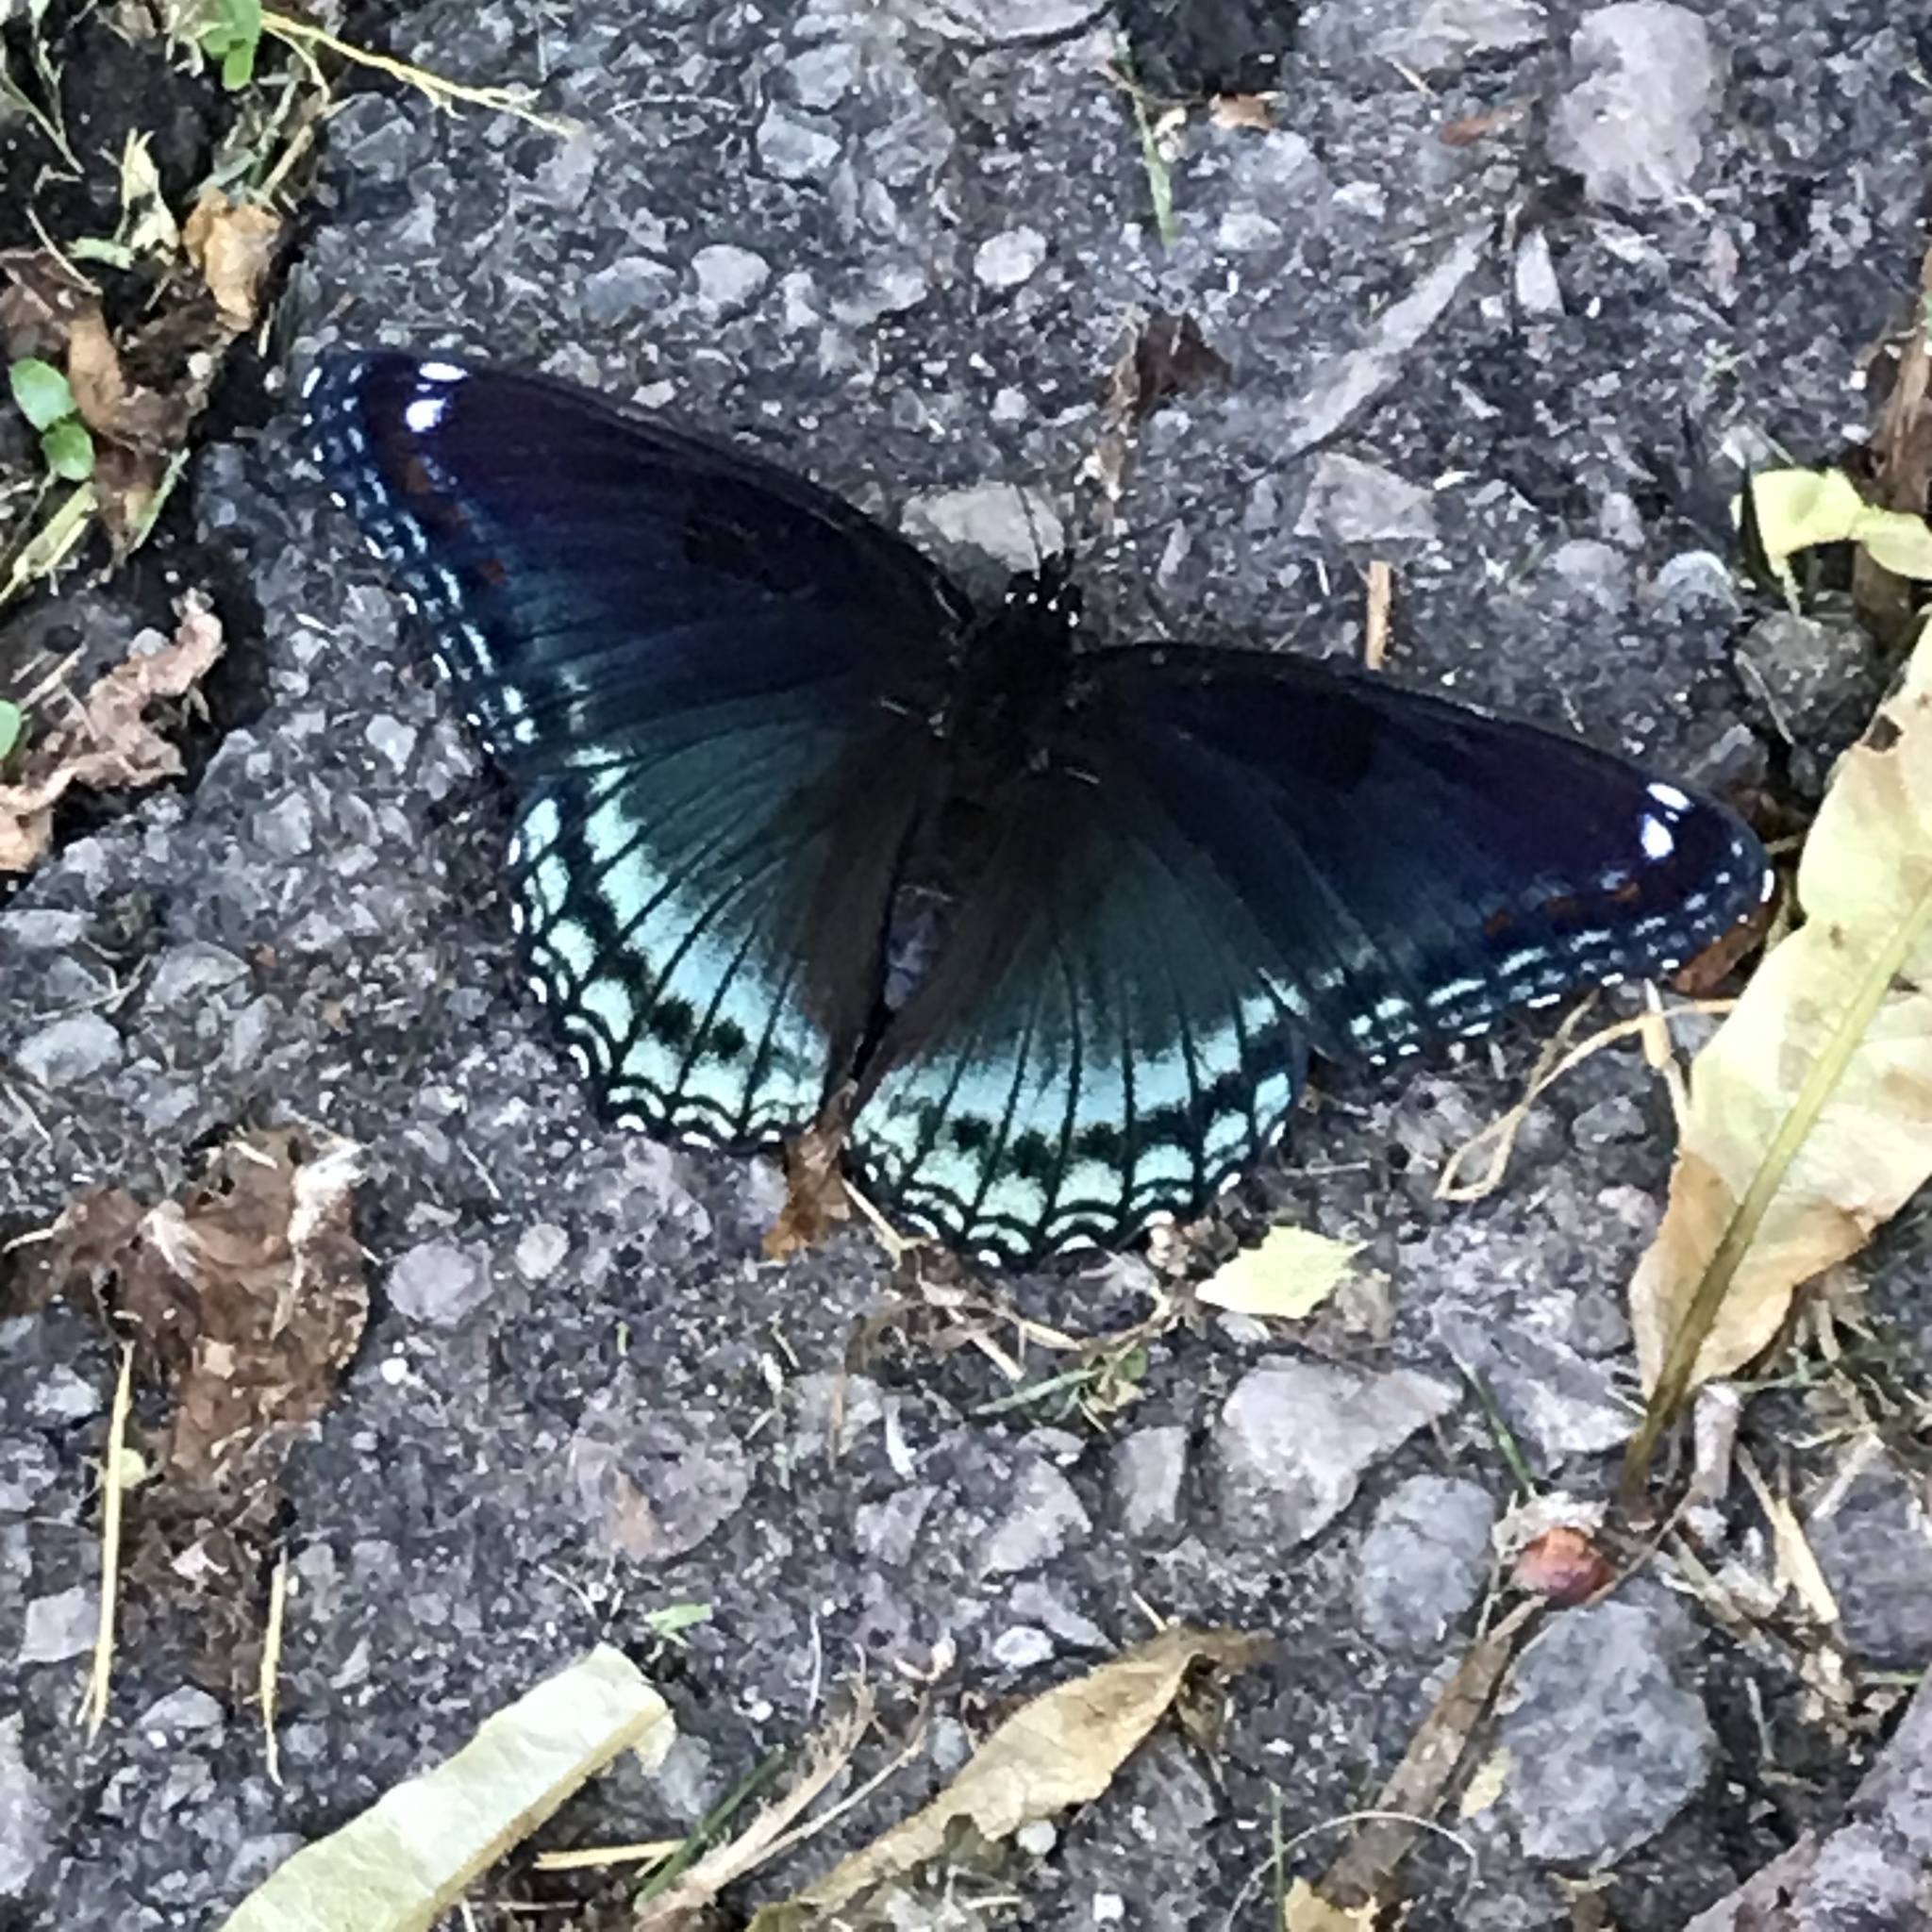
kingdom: Animalia
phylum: Arthropoda
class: Insecta
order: Lepidoptera
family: Nymphalidae
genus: Limenitis
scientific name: Limenitis astyanax
